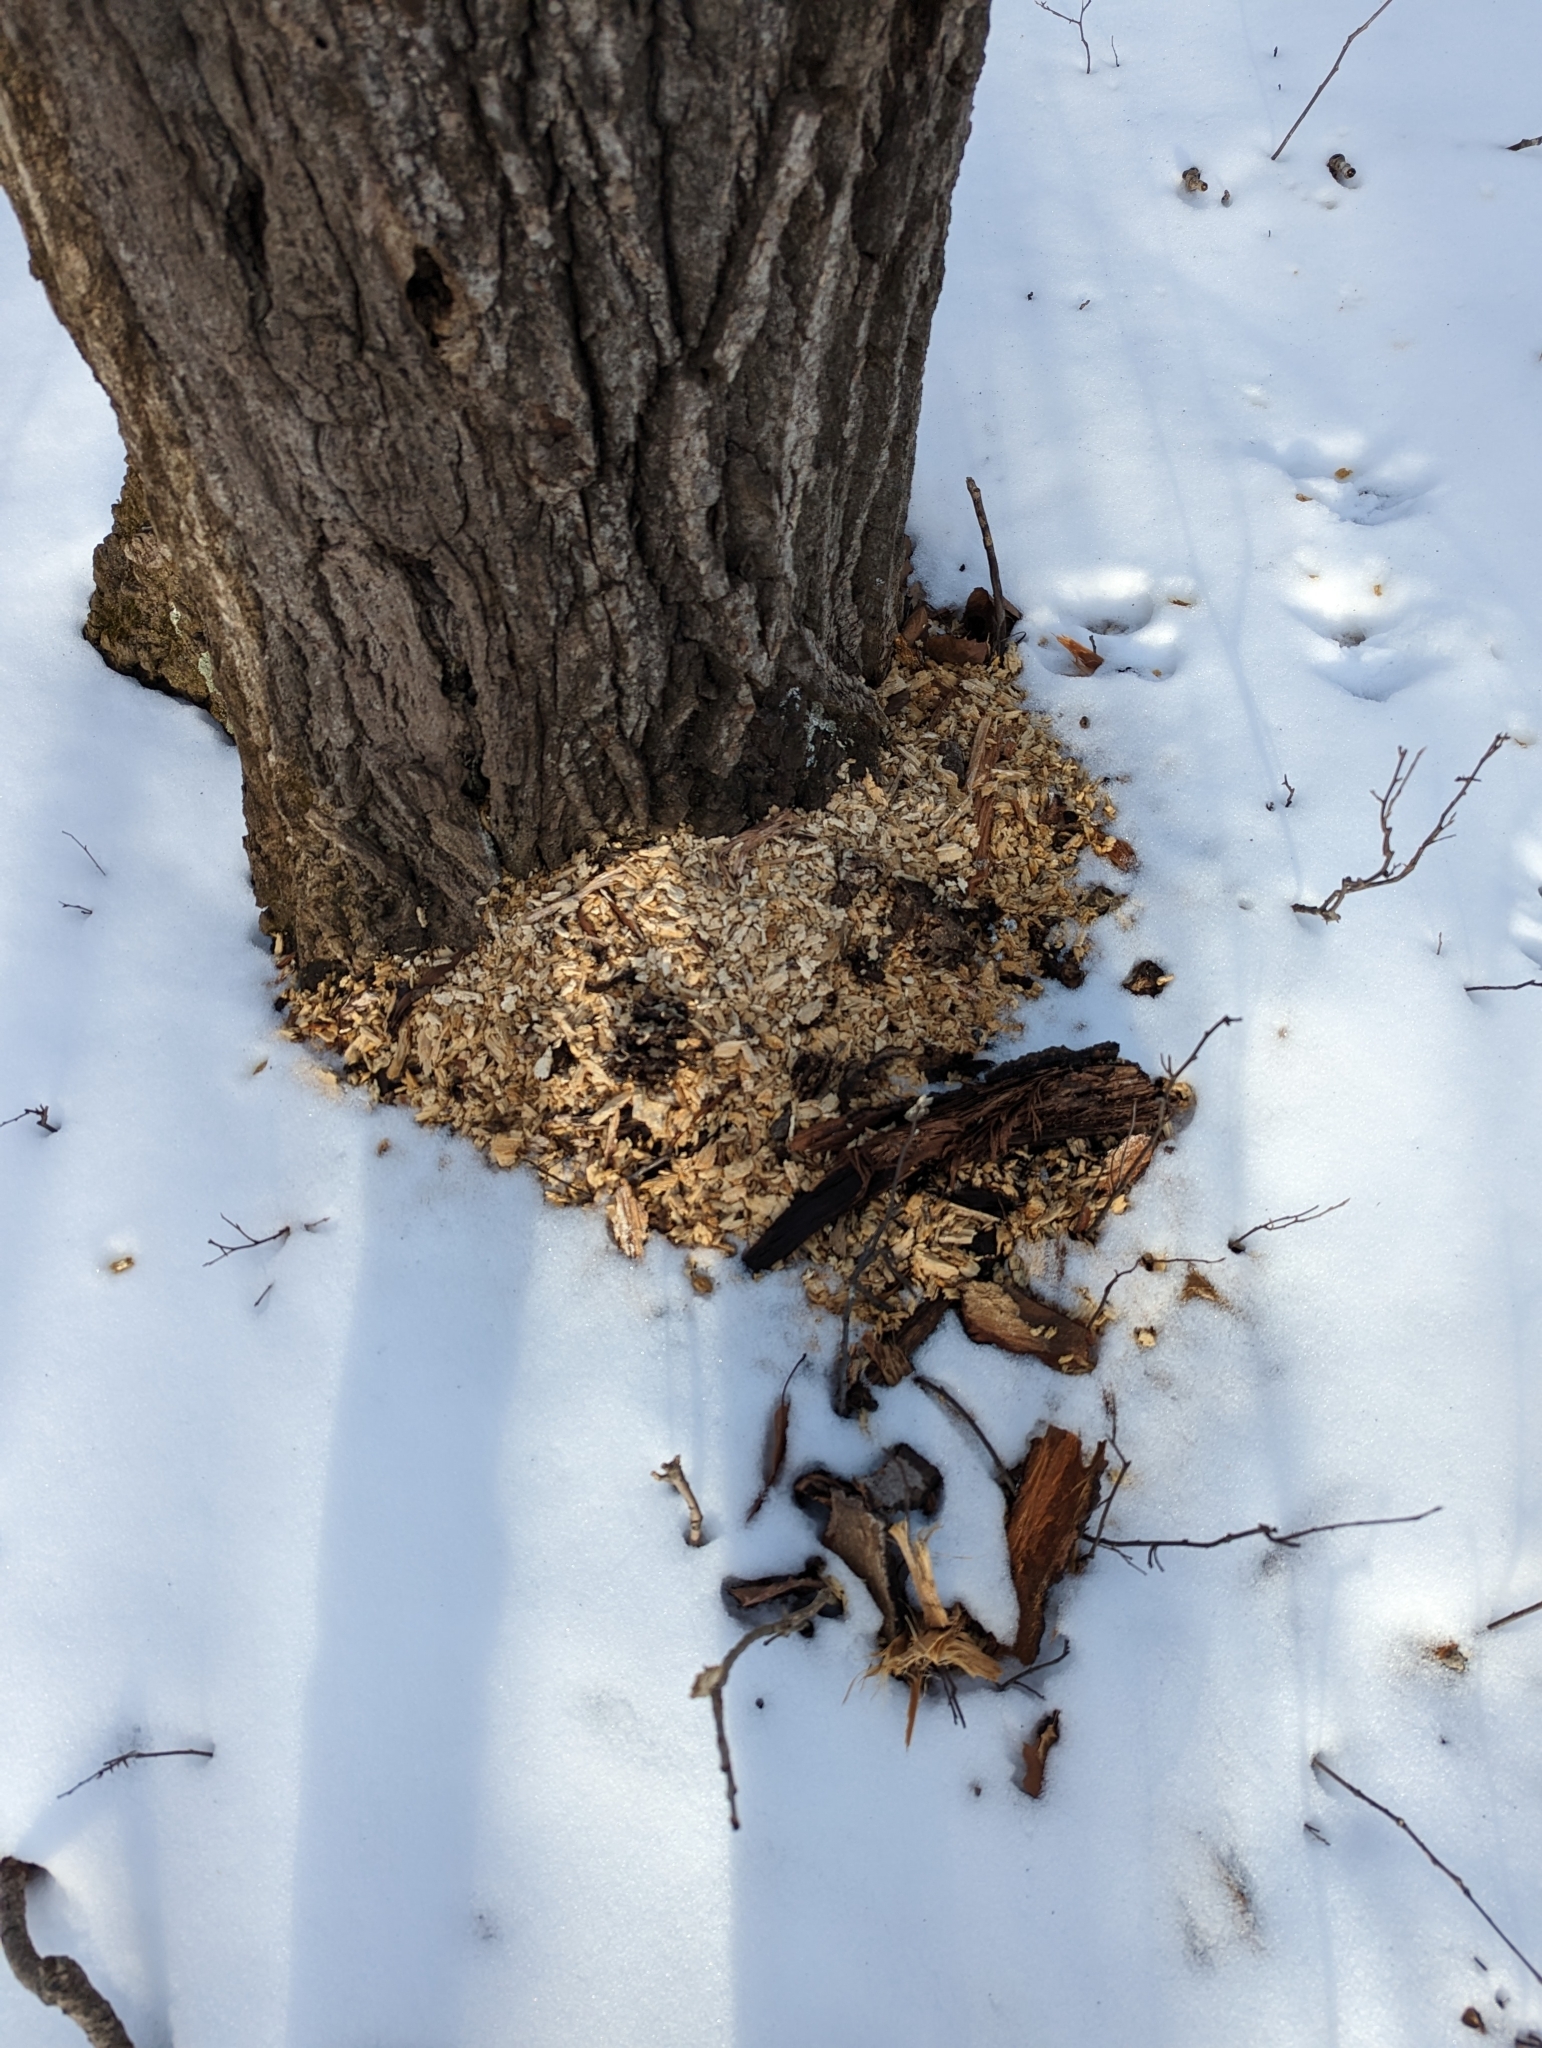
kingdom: Animalia
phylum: Chordata
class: Aves
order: Piciformes
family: Picidae
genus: Dryocopus
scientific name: Dryocopus pileatus
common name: Pileated woodpecker
